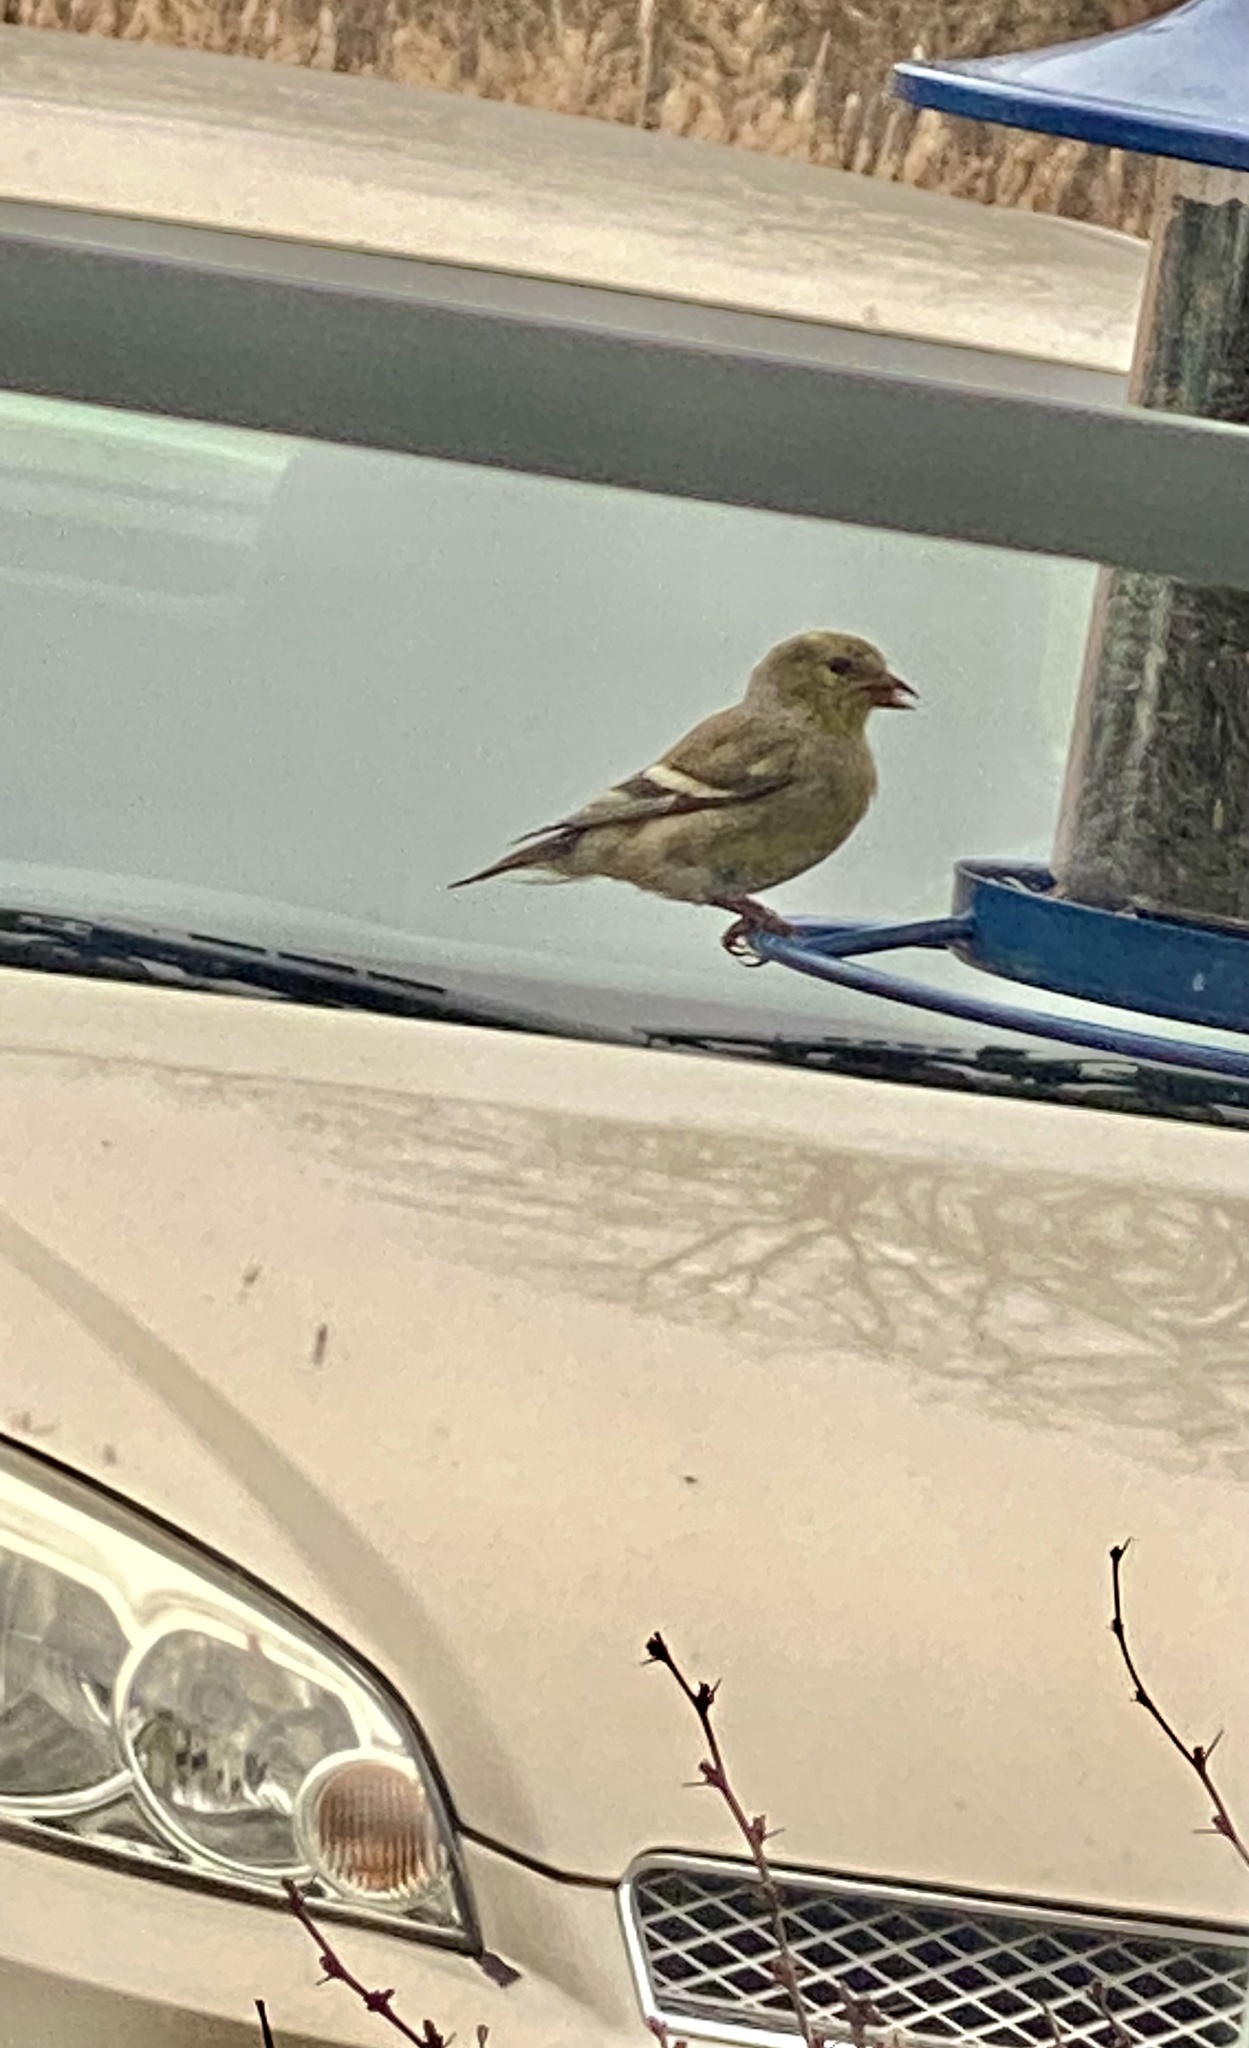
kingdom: Animalia
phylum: Chordata
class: Aves
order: Passeriformes
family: Fringillidae
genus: Spinus
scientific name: Spinus tristis
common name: American goldfinch
